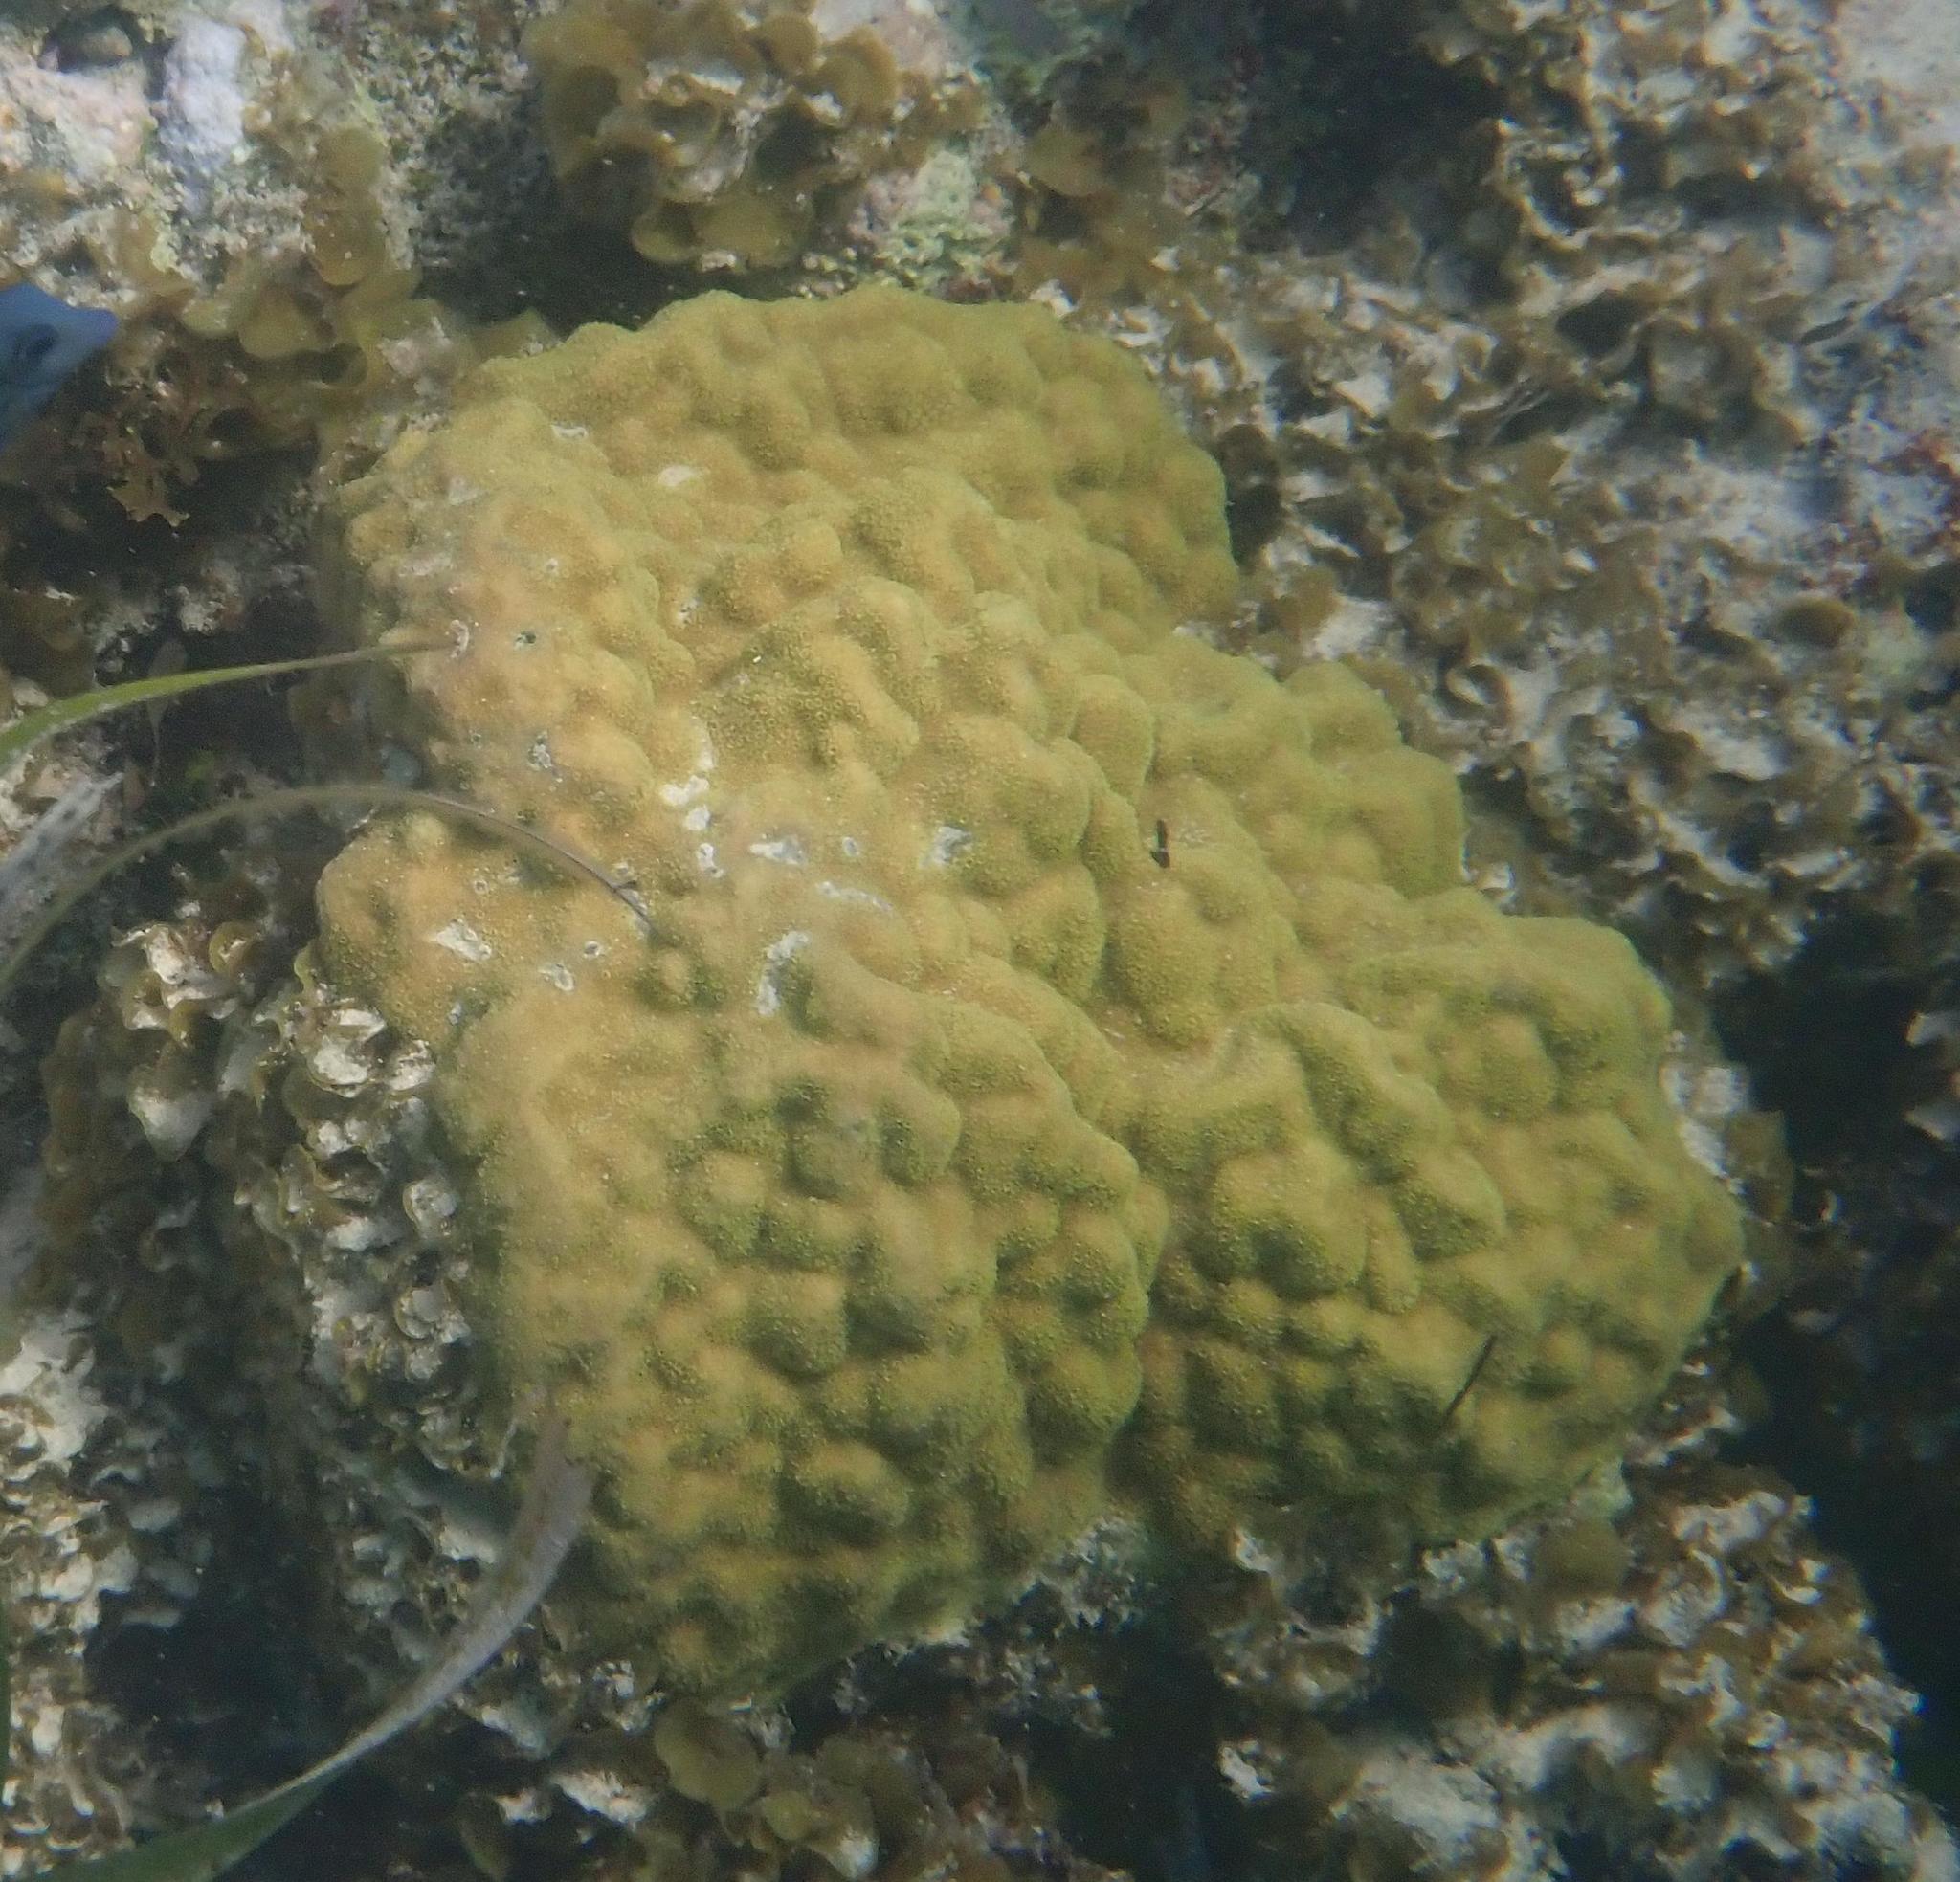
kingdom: Animalia
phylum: Cnidaria
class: Anthozoa
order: Scleractinia
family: Poritidae
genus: Porites
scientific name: Porites astreoides
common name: Mustard hill coral
